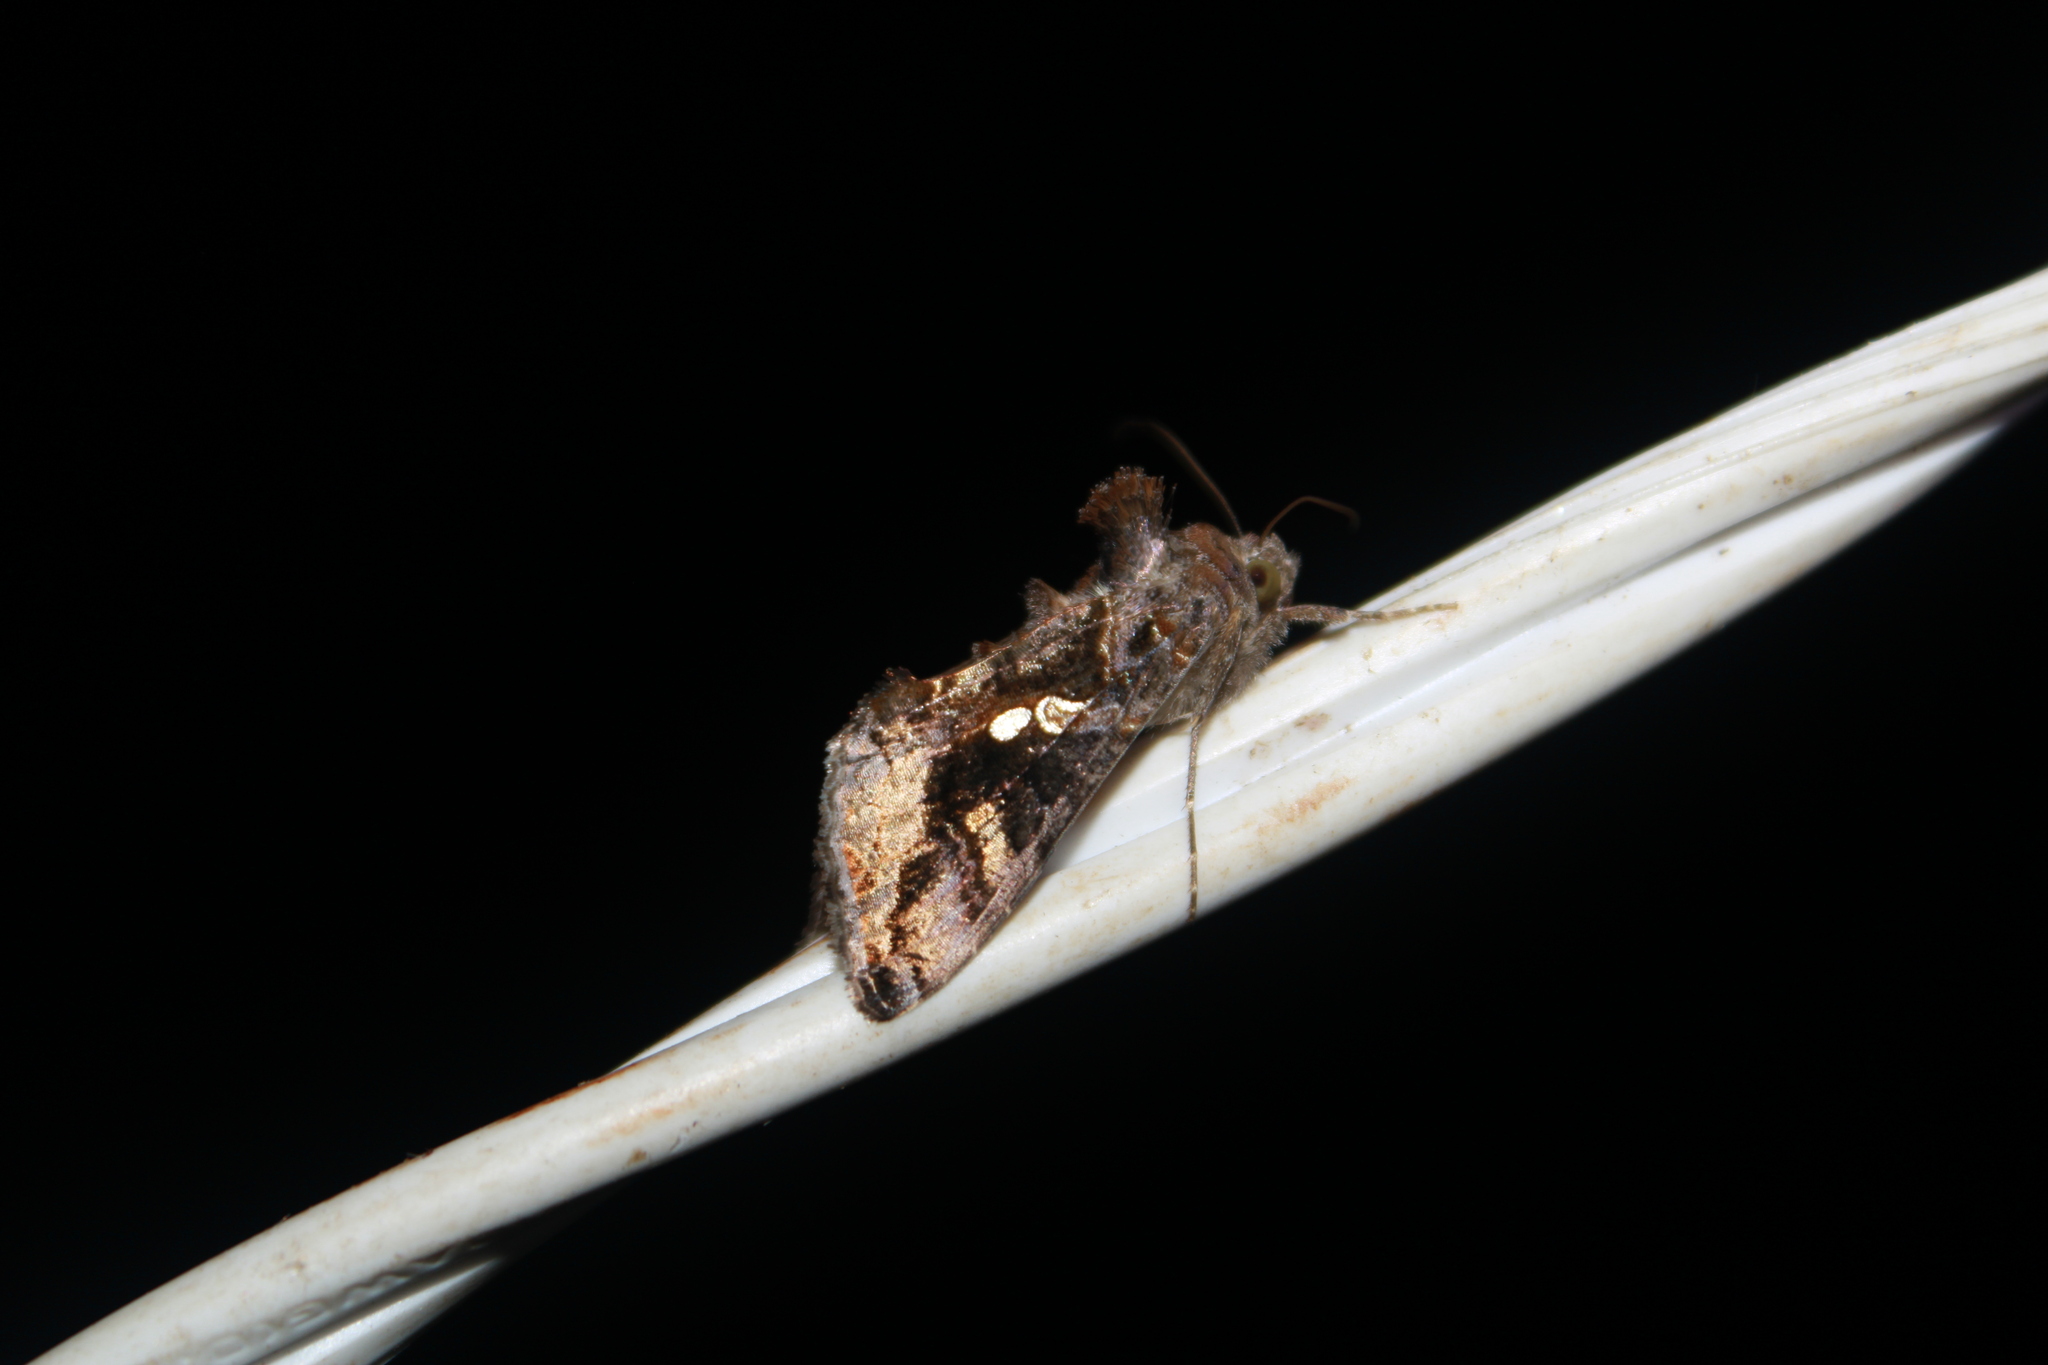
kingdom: Animalia
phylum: Arthropoda
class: Insecta
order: Lepidoptera
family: Noctuidae
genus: Chrysodeixis
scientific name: Chrysodeixis includens
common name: Cutworm moth
